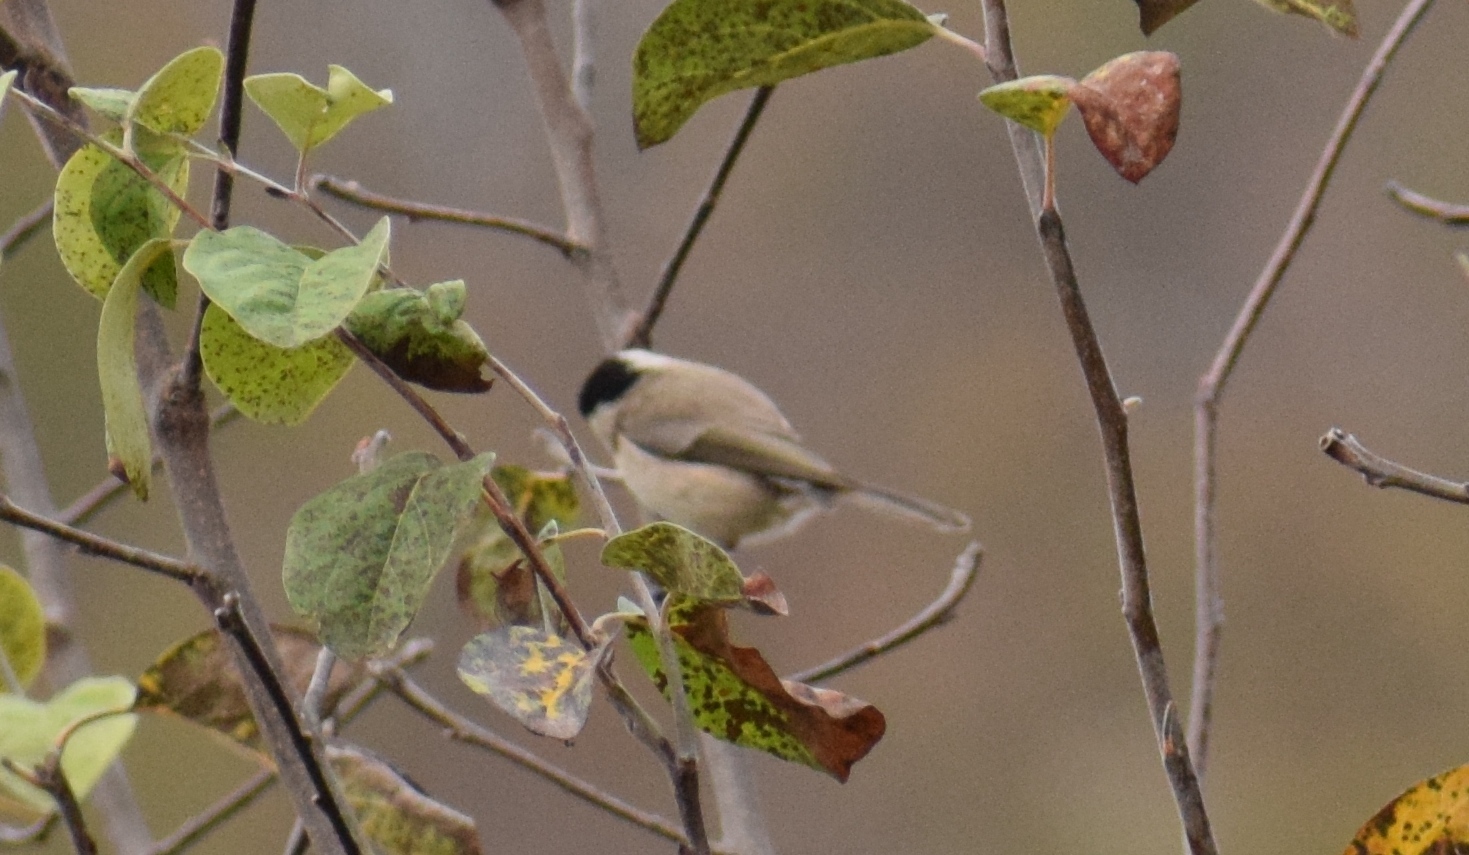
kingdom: Animalia
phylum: Chordata
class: Aves
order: Passeriformes
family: Paridae
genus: Poecile
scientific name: Poecile palustris
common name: Marsh tit
